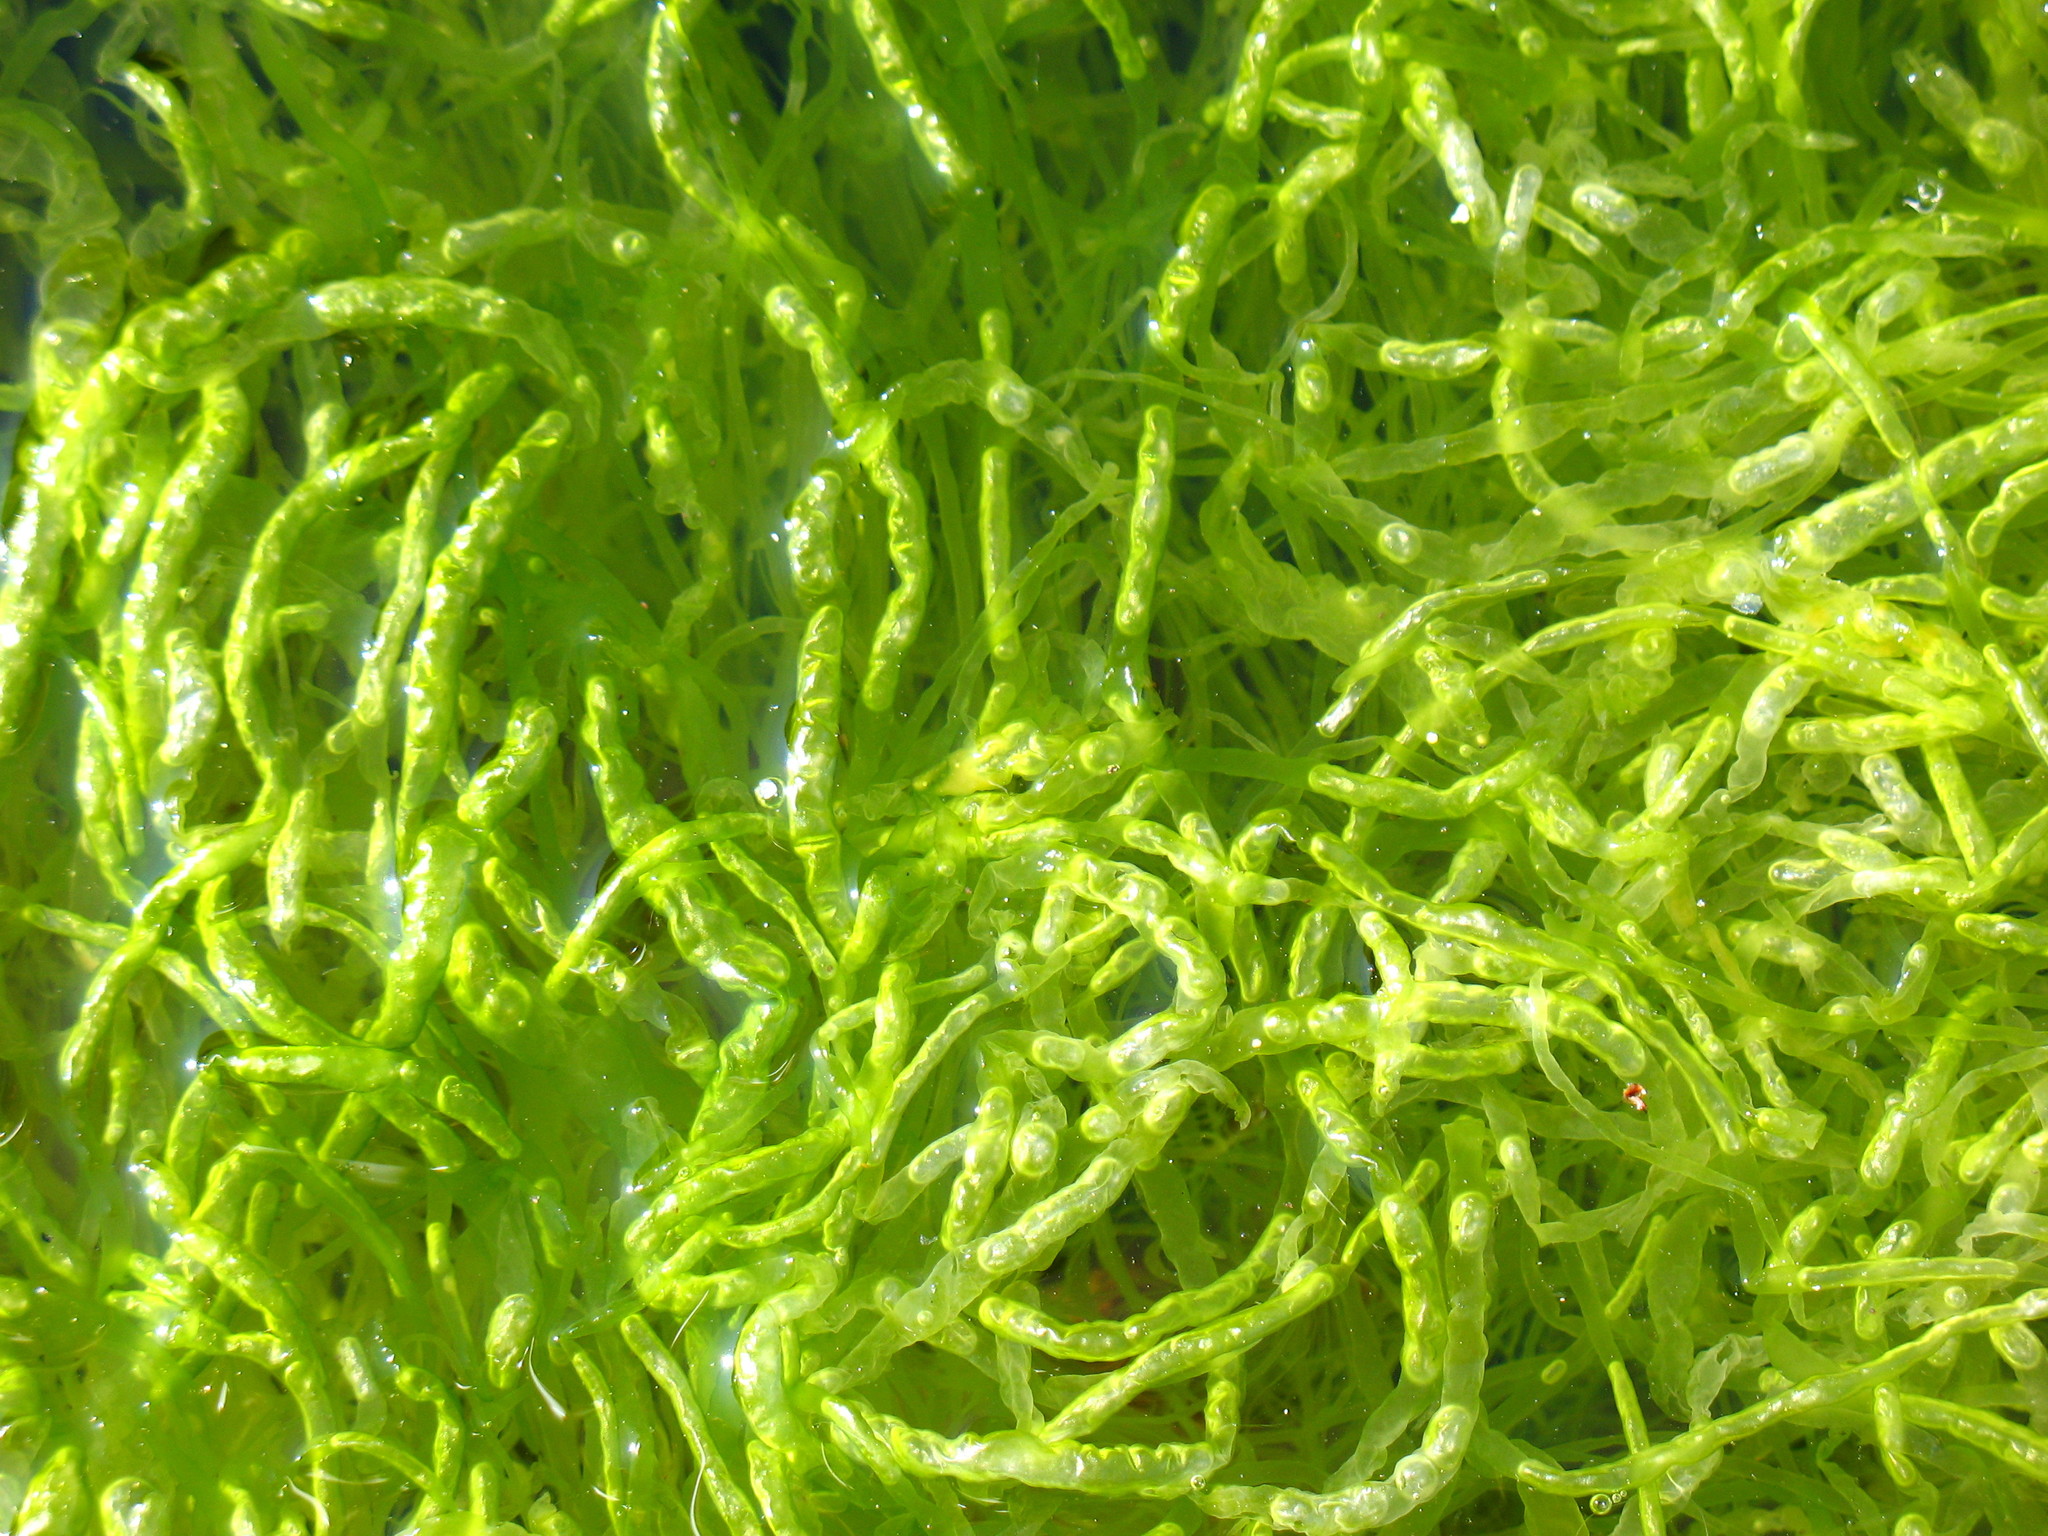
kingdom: Plantae
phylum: Chlorophyta
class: Ulvophyceae
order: Ulvales
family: Ulvaceae
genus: Ulva
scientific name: Ulva intestinalis
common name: Gut weed
